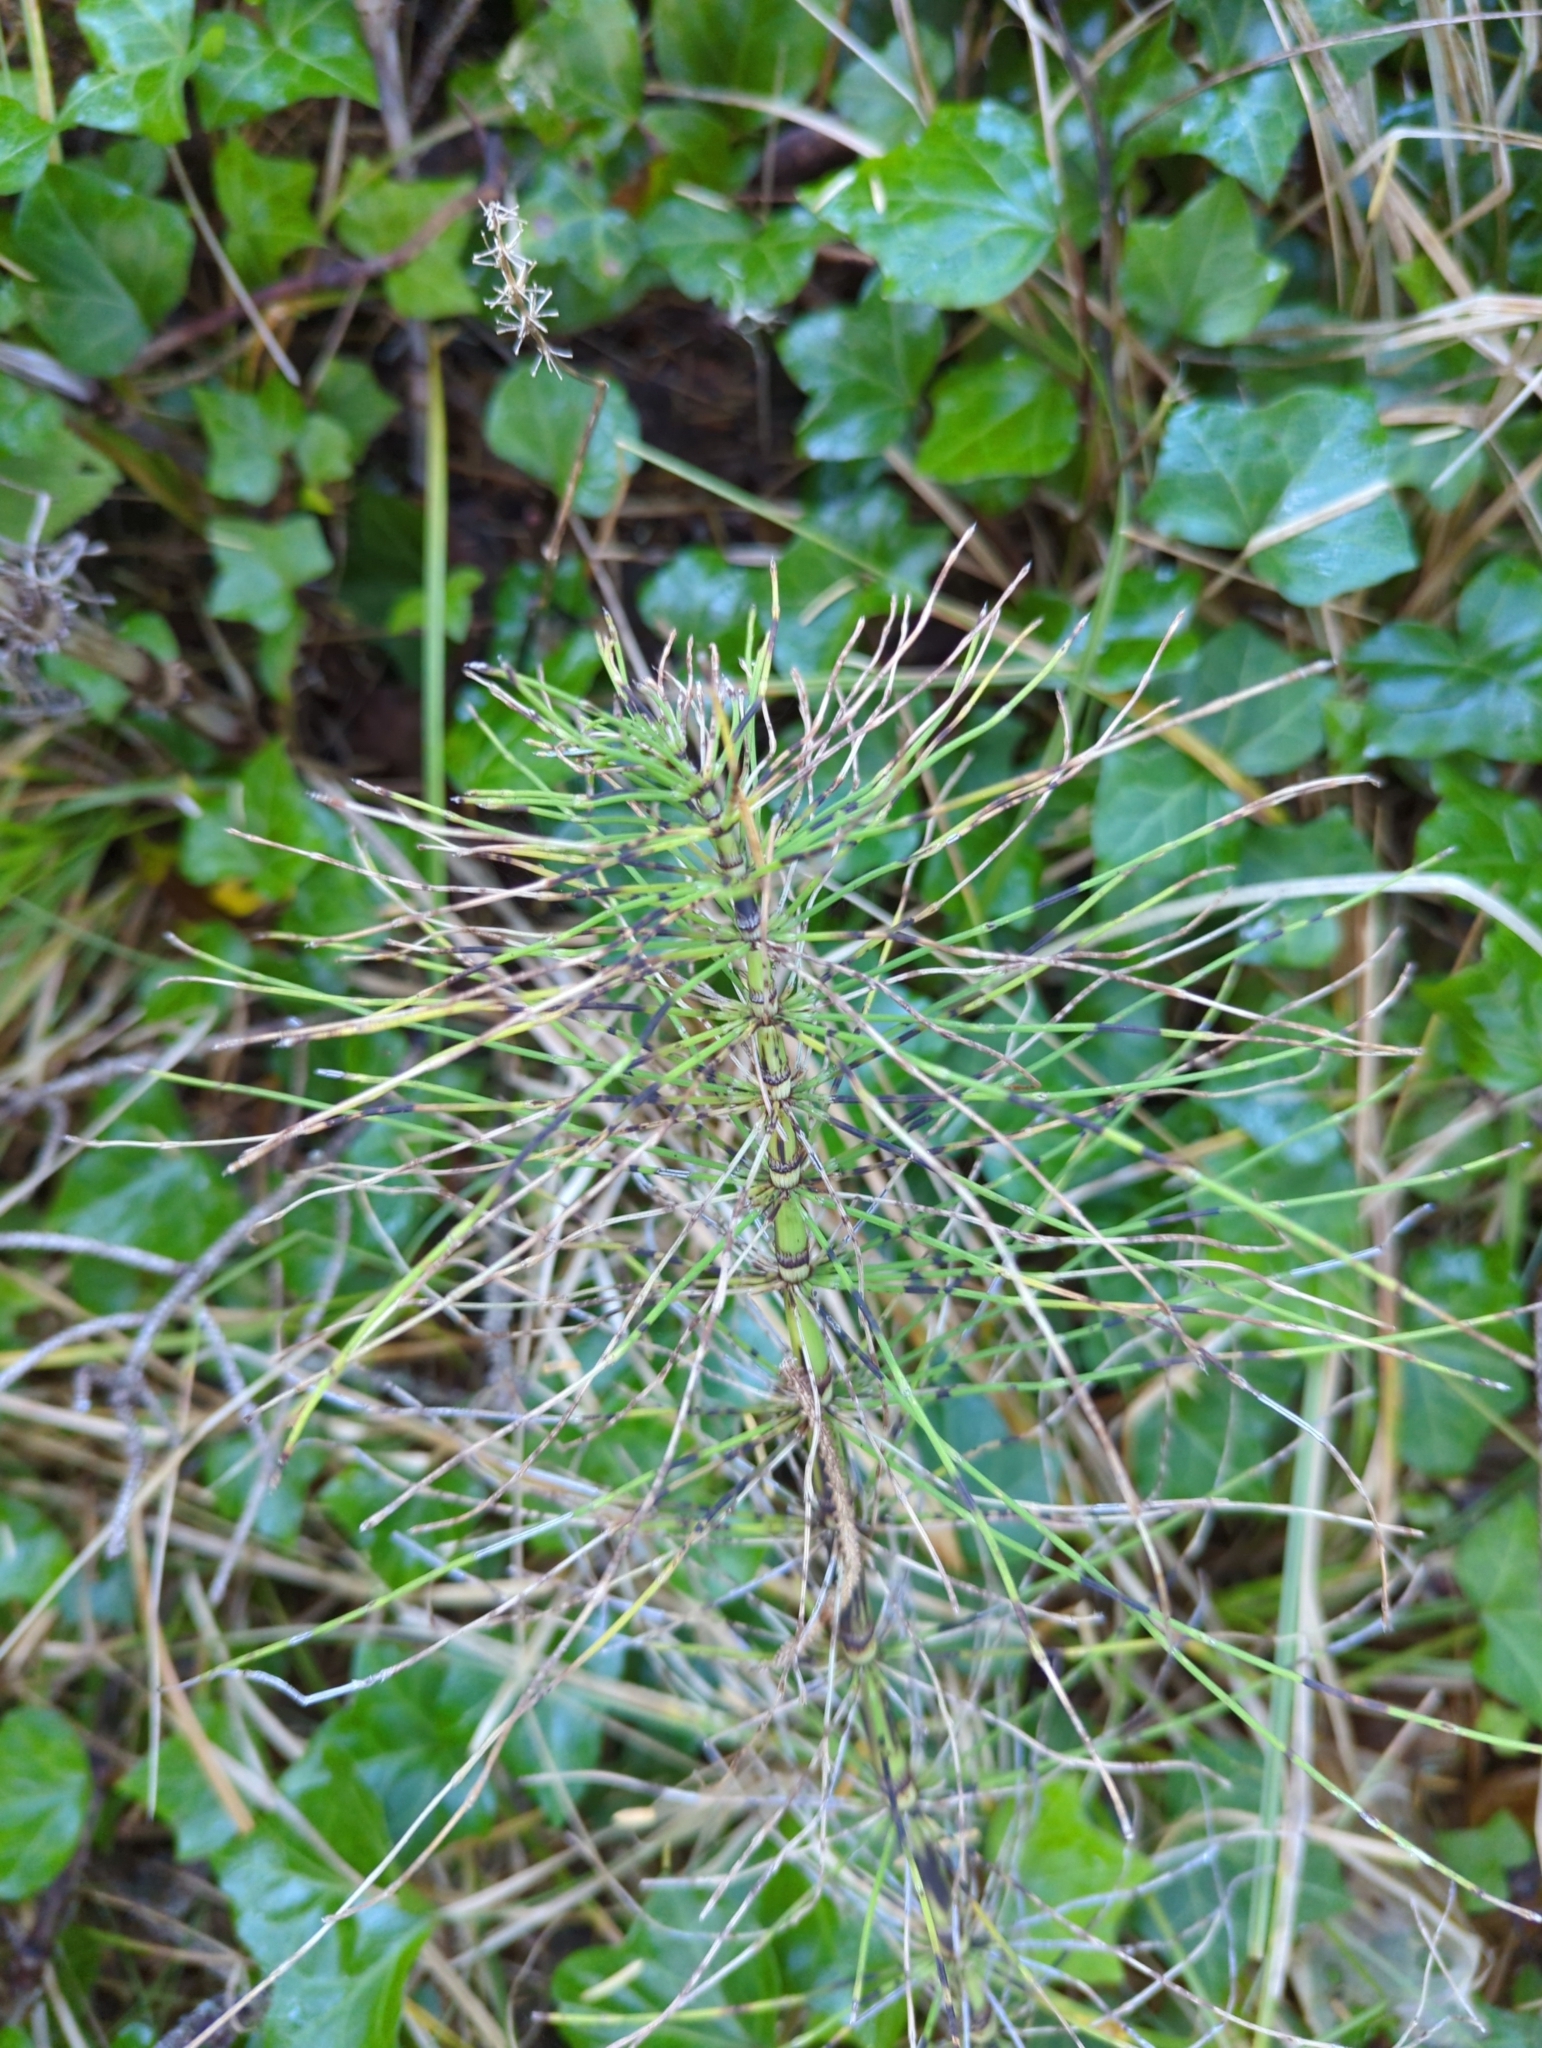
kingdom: Plantae
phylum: Tracheophyta
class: Polypodiopsida
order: Equisetales
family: Equisetaceae
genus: Equisetum
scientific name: Equisetum telmateia
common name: Great horsetail
